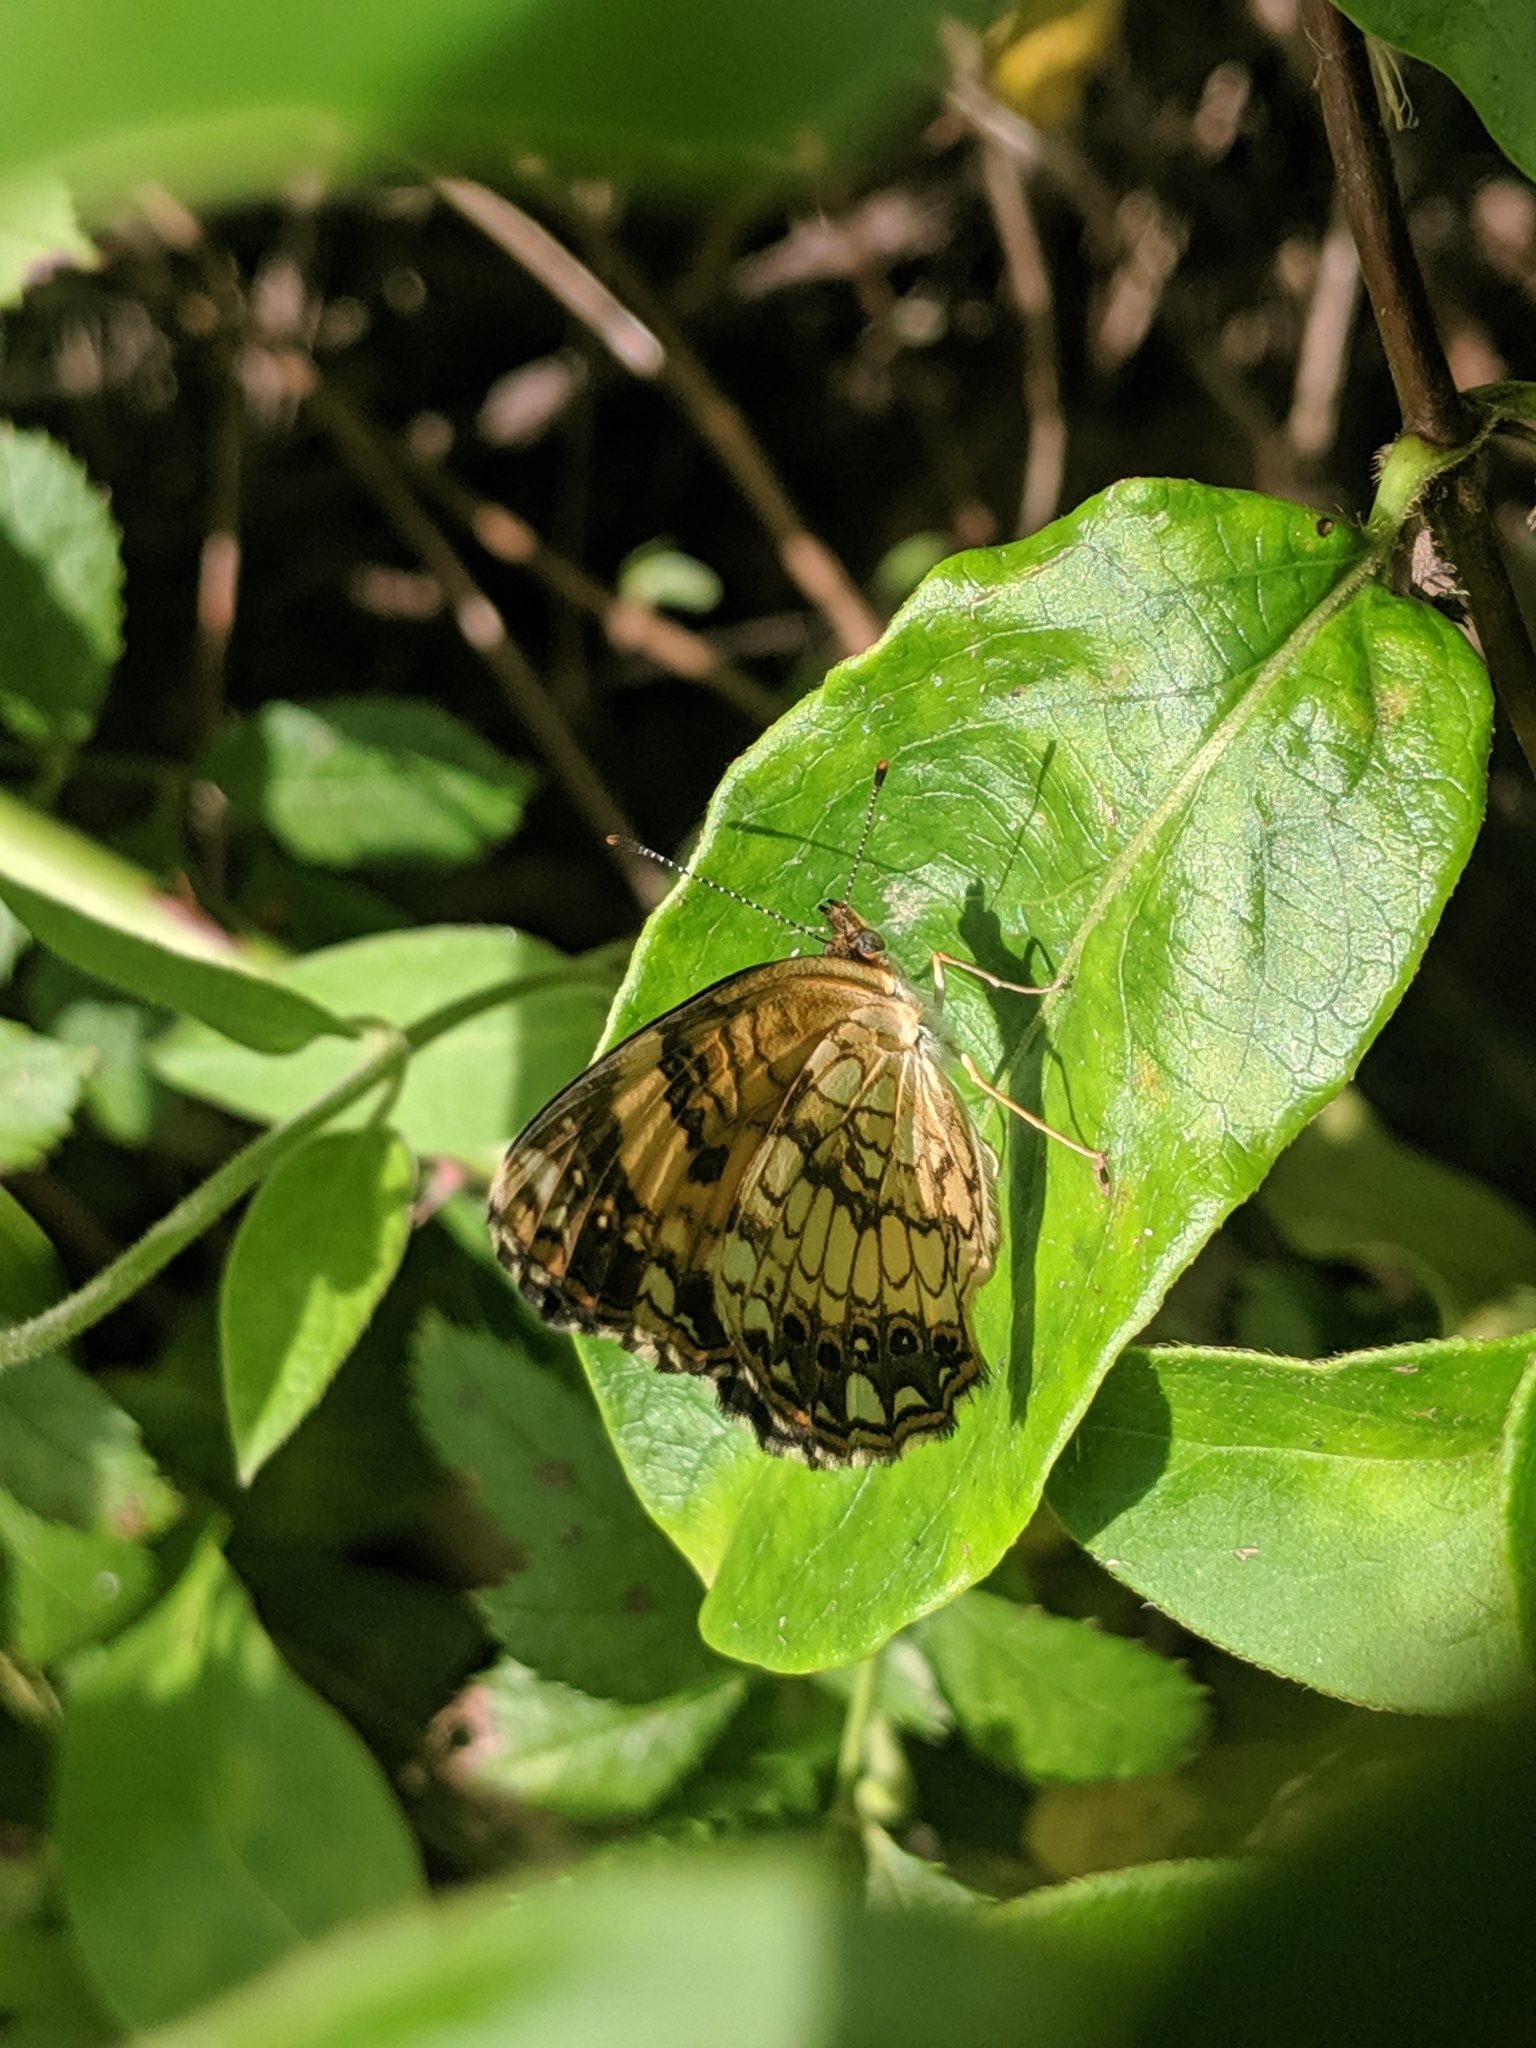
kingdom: Animalia
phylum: Arthropoda
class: Insecta
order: Lepidoptera
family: Nymphalidae
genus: Chlosyne
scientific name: Chlosyne nycteis
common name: Silvery checkerspot
